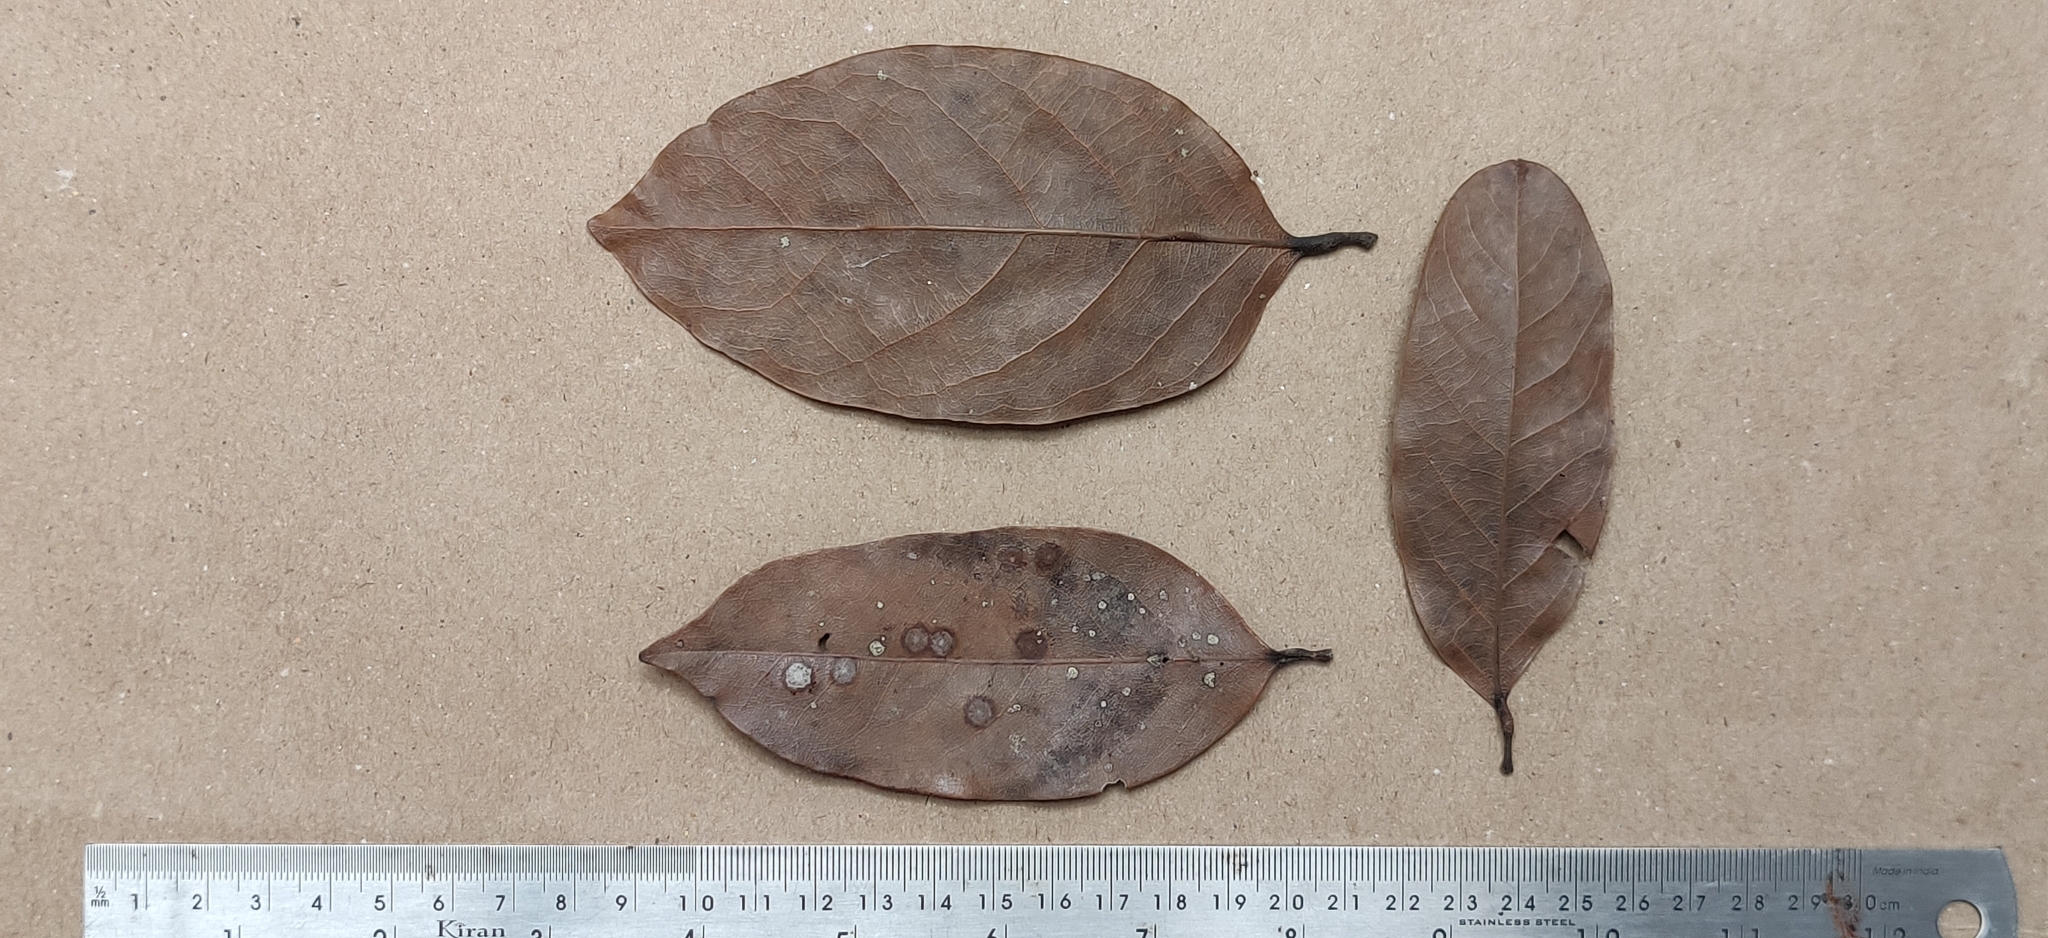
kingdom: Plantae
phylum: Tracheophyta
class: Magnoliopsida
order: Malpighiales
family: Achariaceae
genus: Hydnocarpus
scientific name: Hydnocarpus alpinus
